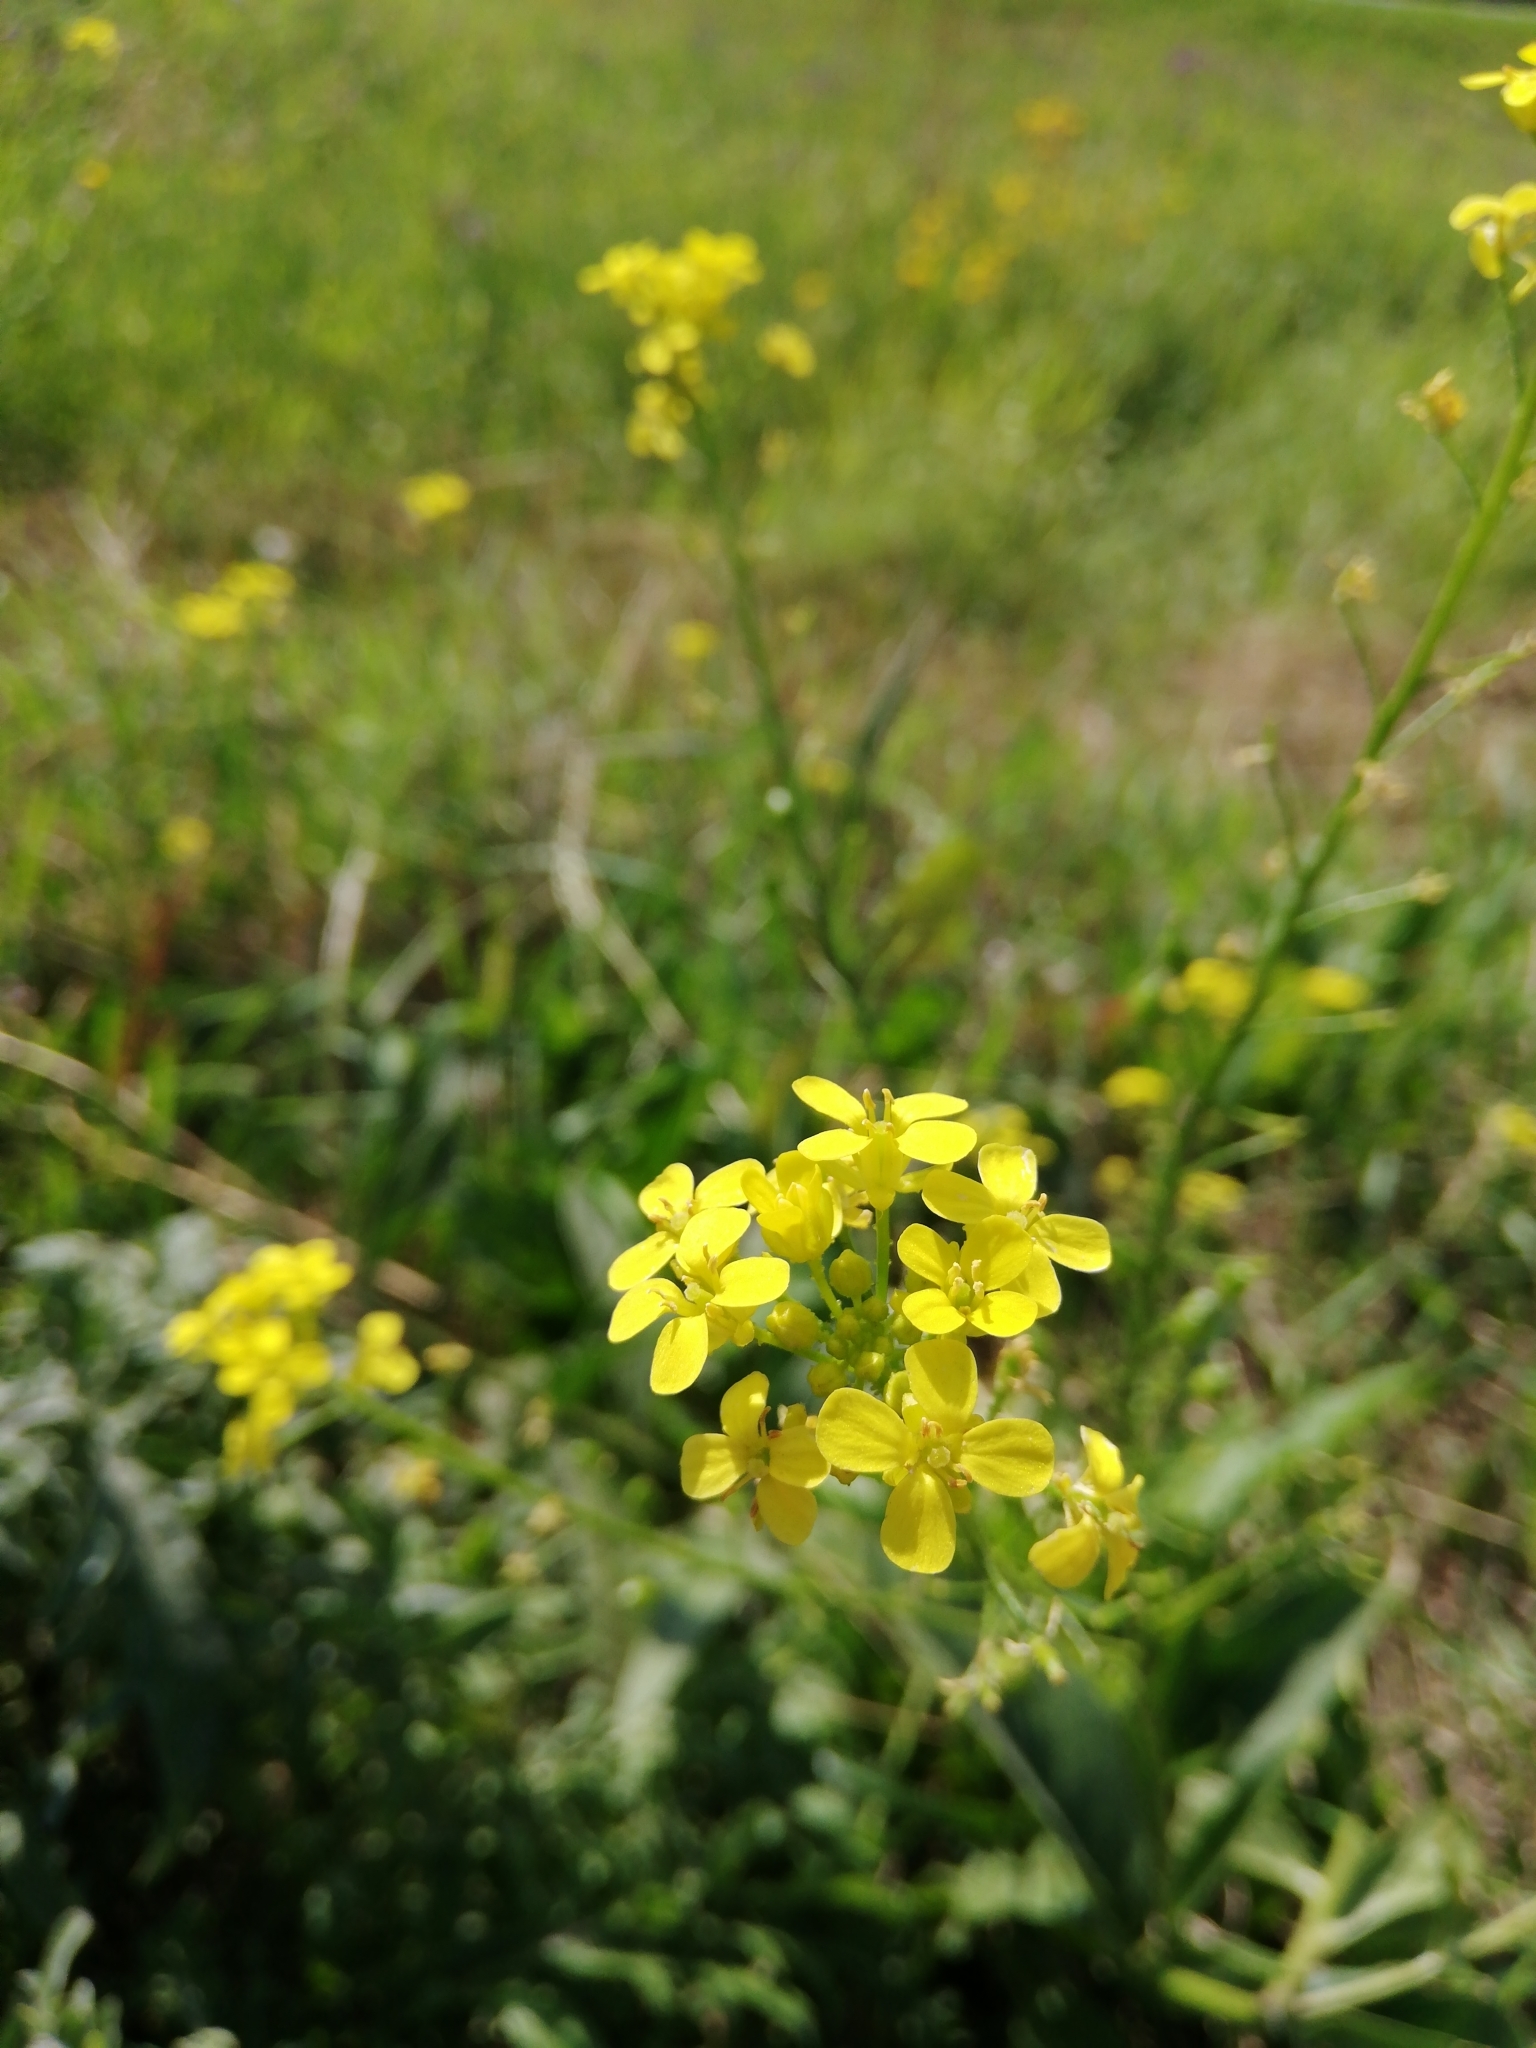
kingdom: Plantae
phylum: Tracheophyta
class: Magnoliopsida
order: Brassicales
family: Brassicaceae
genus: Bunias
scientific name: Bunias orientalis
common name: Warty-cabbage
